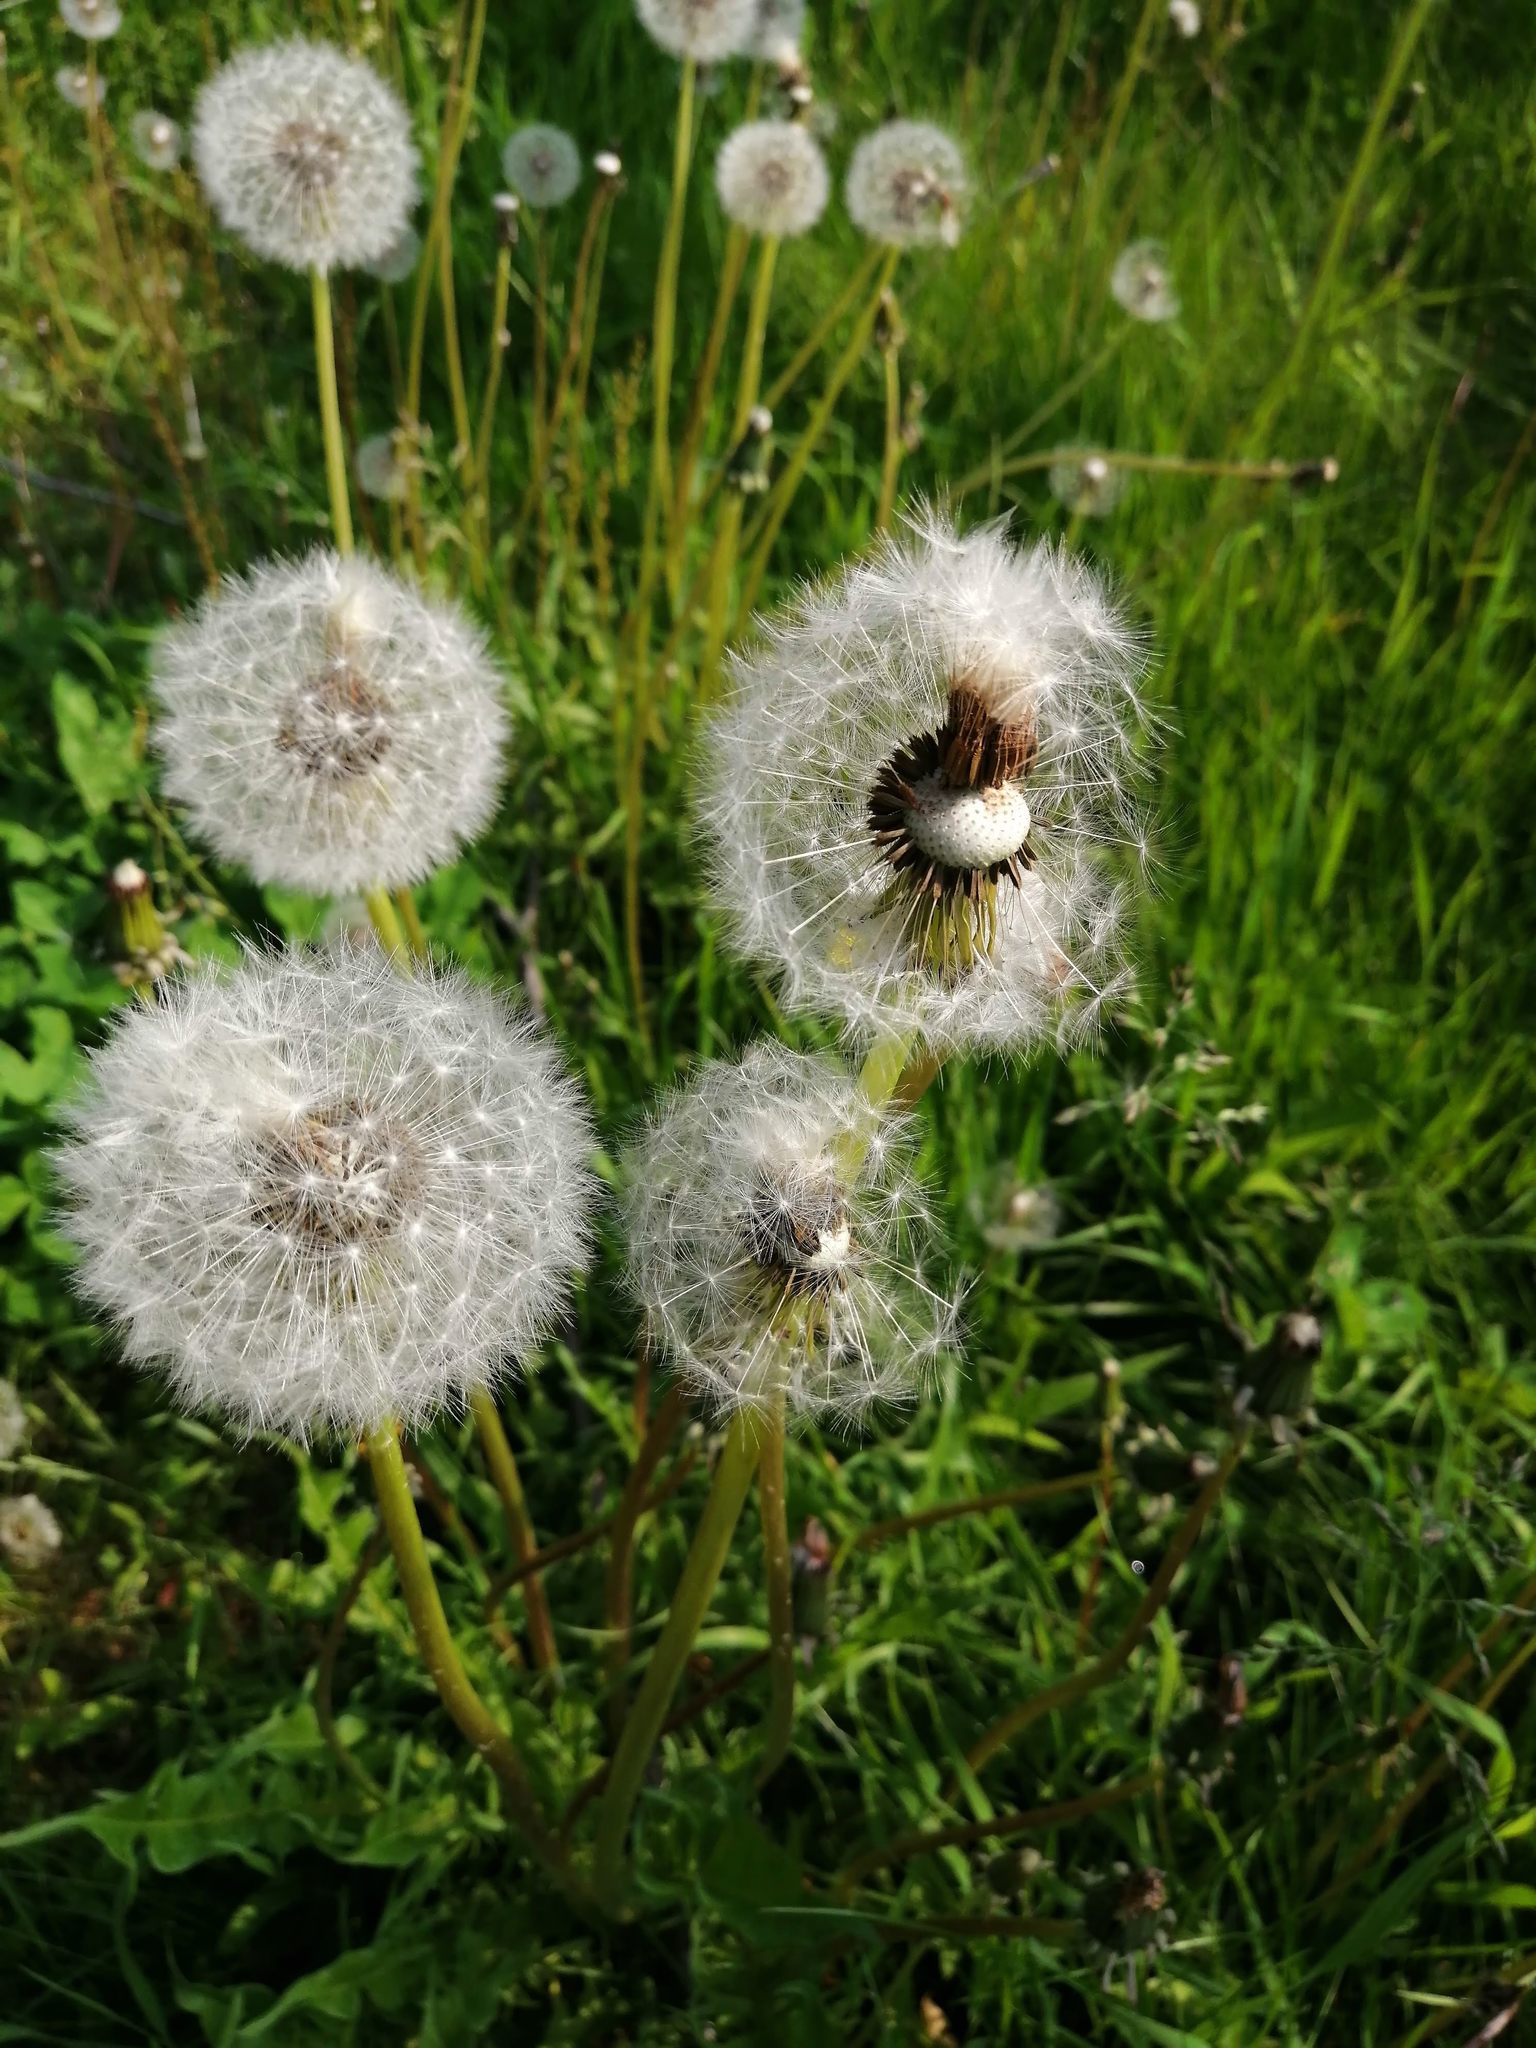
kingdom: Plantae
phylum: Tracheophyta
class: Magnoliopsida
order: Asterales
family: Asteraceae
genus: Taraxacum
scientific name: Taraxacum officinale
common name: Common dandelion
